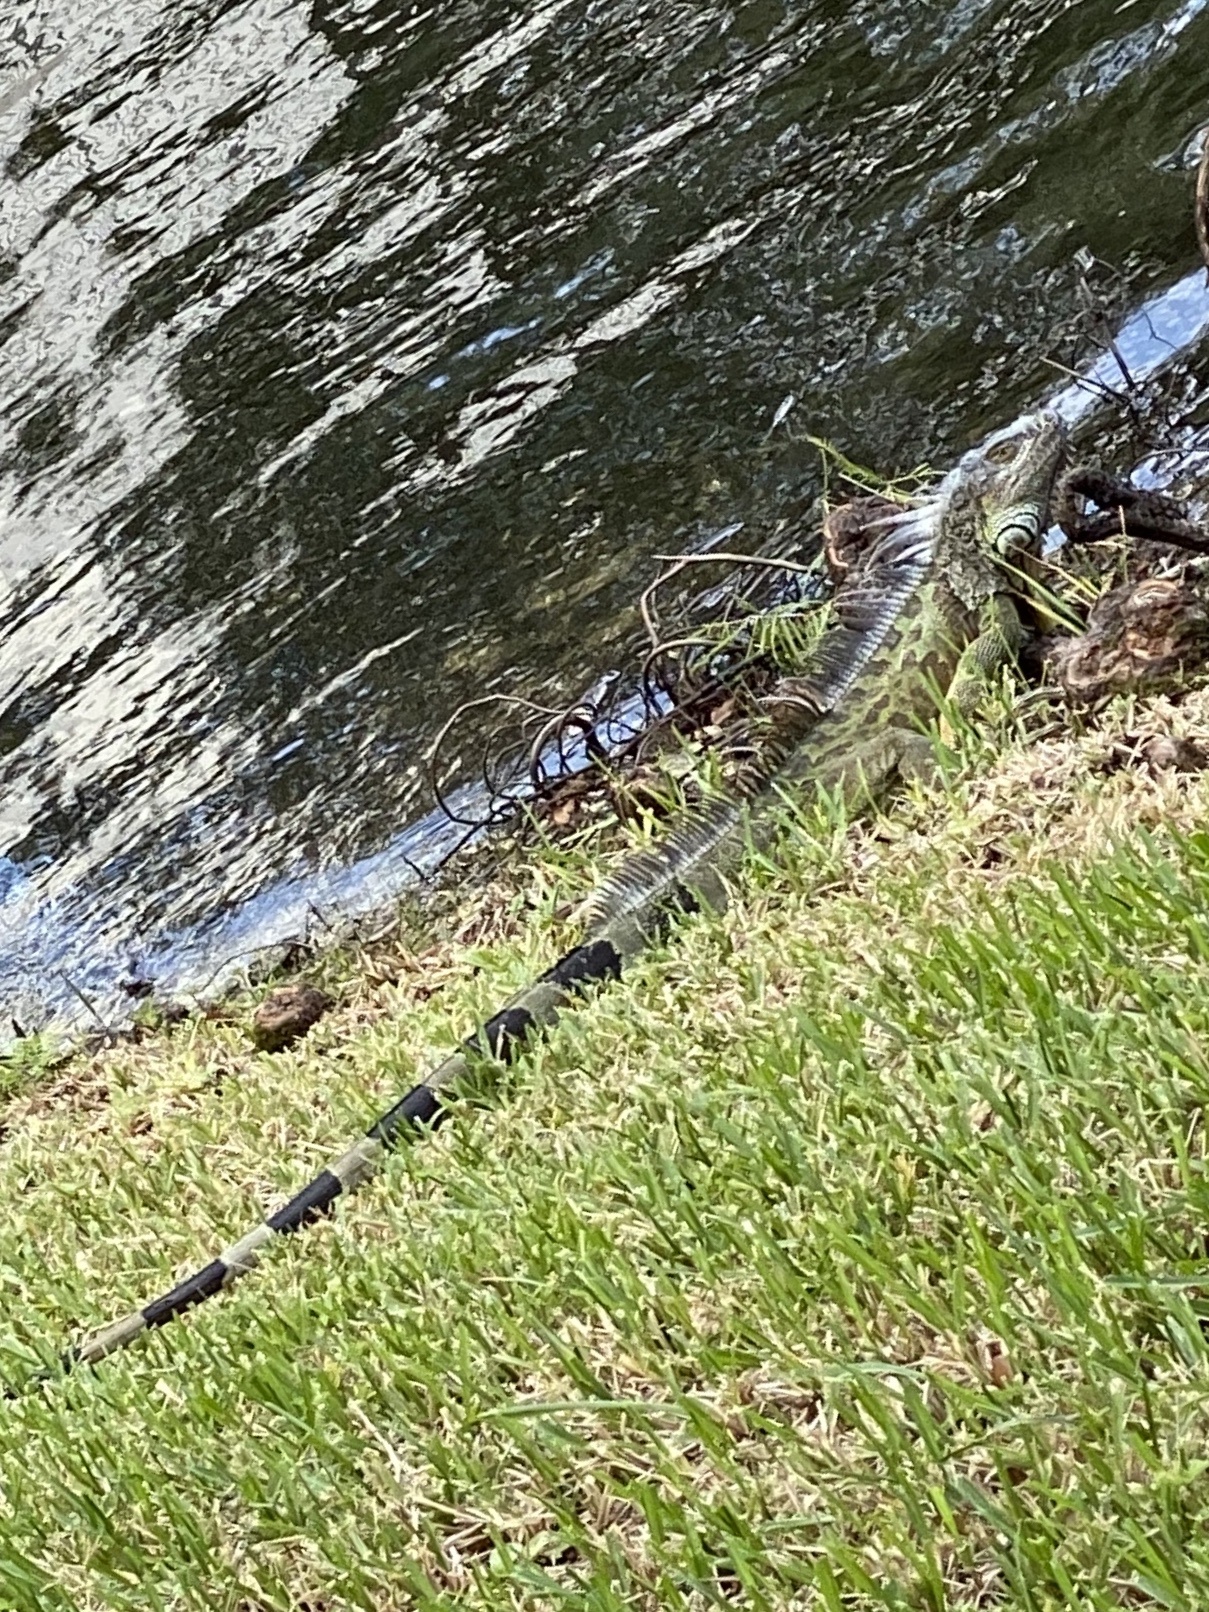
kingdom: Animalia
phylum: Chordata
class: Squamata
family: Iguanidae
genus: Iguana
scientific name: Iguana iguana
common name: Green iguana
